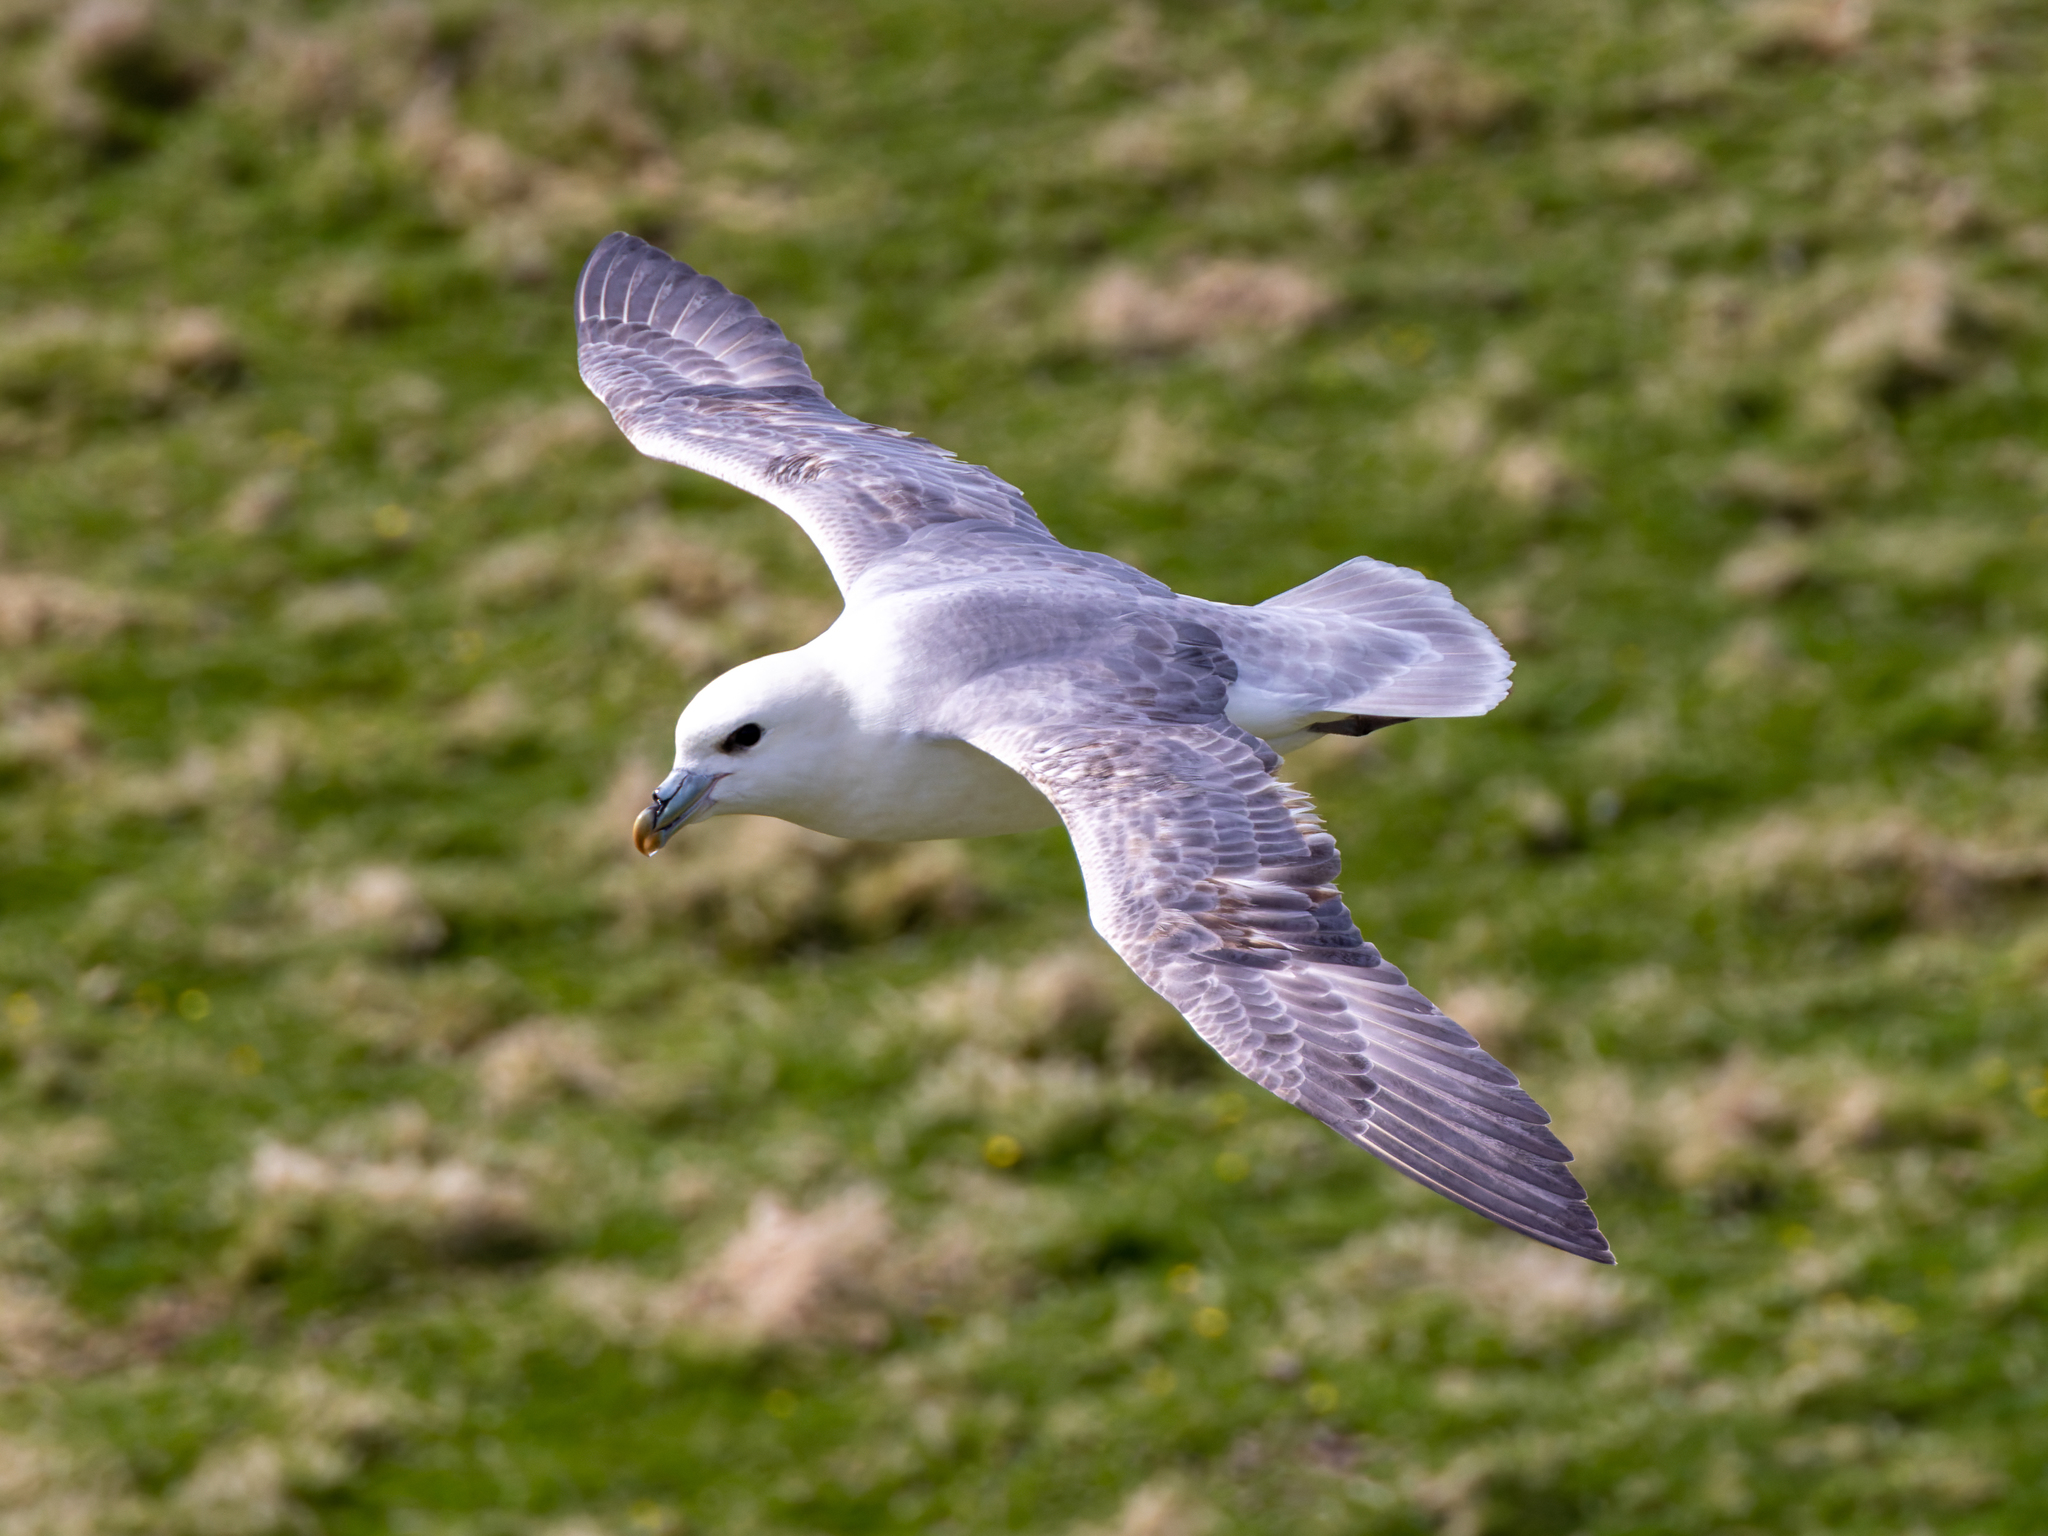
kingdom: Animalia
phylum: Chordata
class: Aves
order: Procellariiformes
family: Procellariidae
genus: Fulmarus
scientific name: Fulmarus glacialis
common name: Northern fulmar
